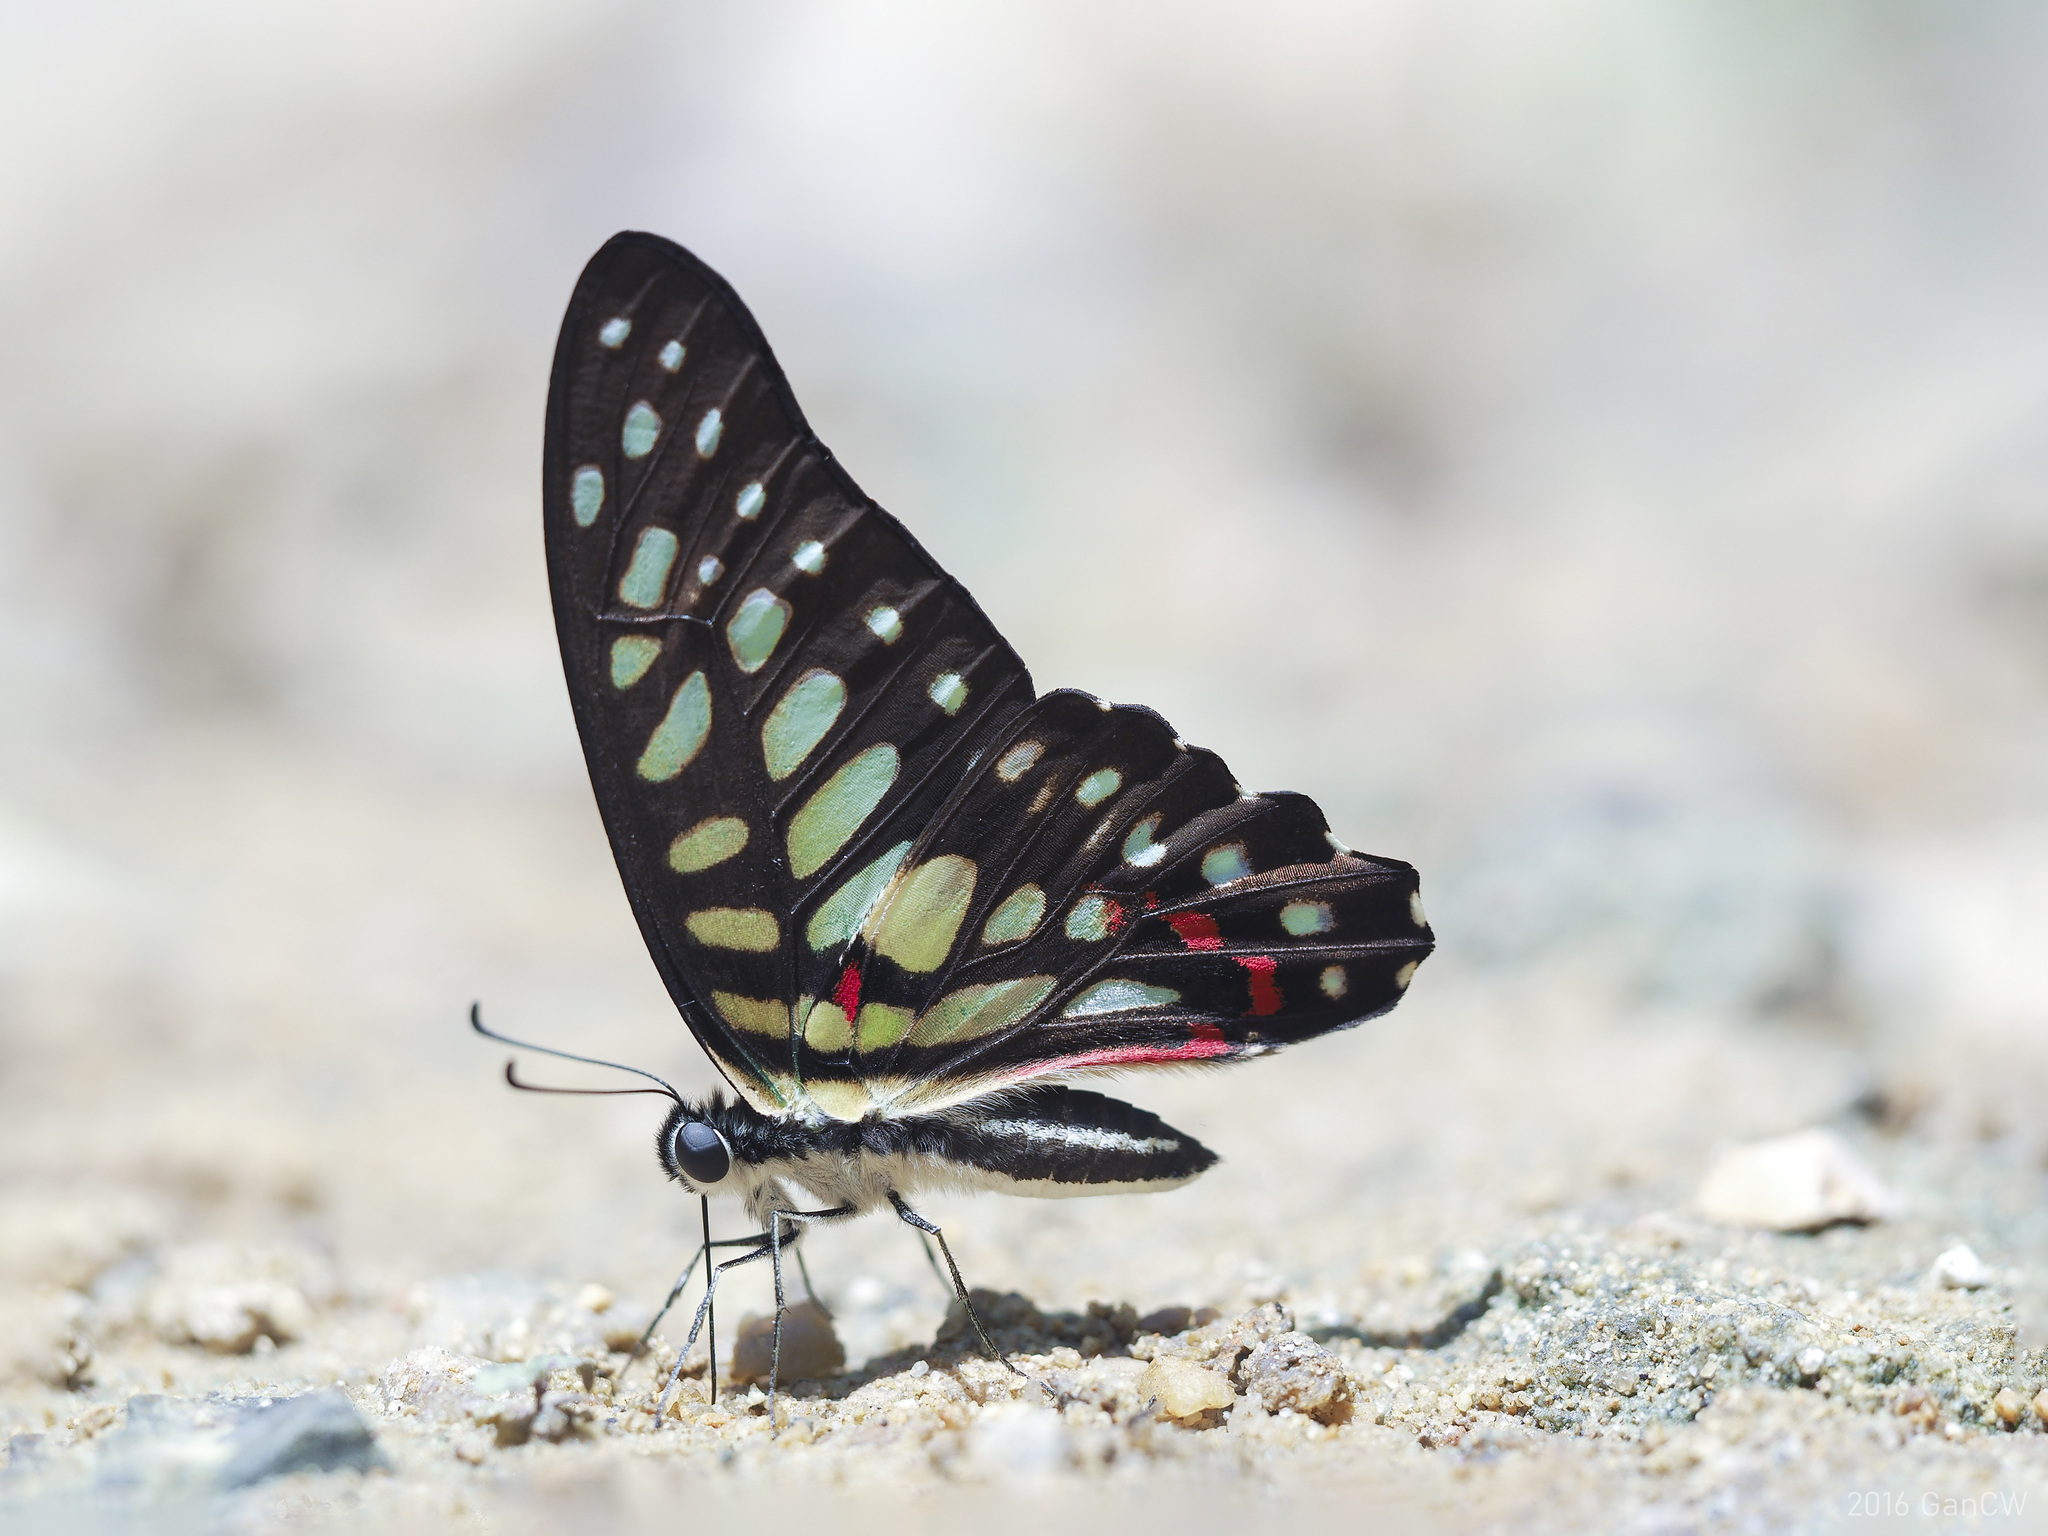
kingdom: Animalia
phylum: Arthropoda
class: Insecta
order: Lepidoptera
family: Papilionidae
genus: Graphium
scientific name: Graphium arycles
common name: Spotted jay
